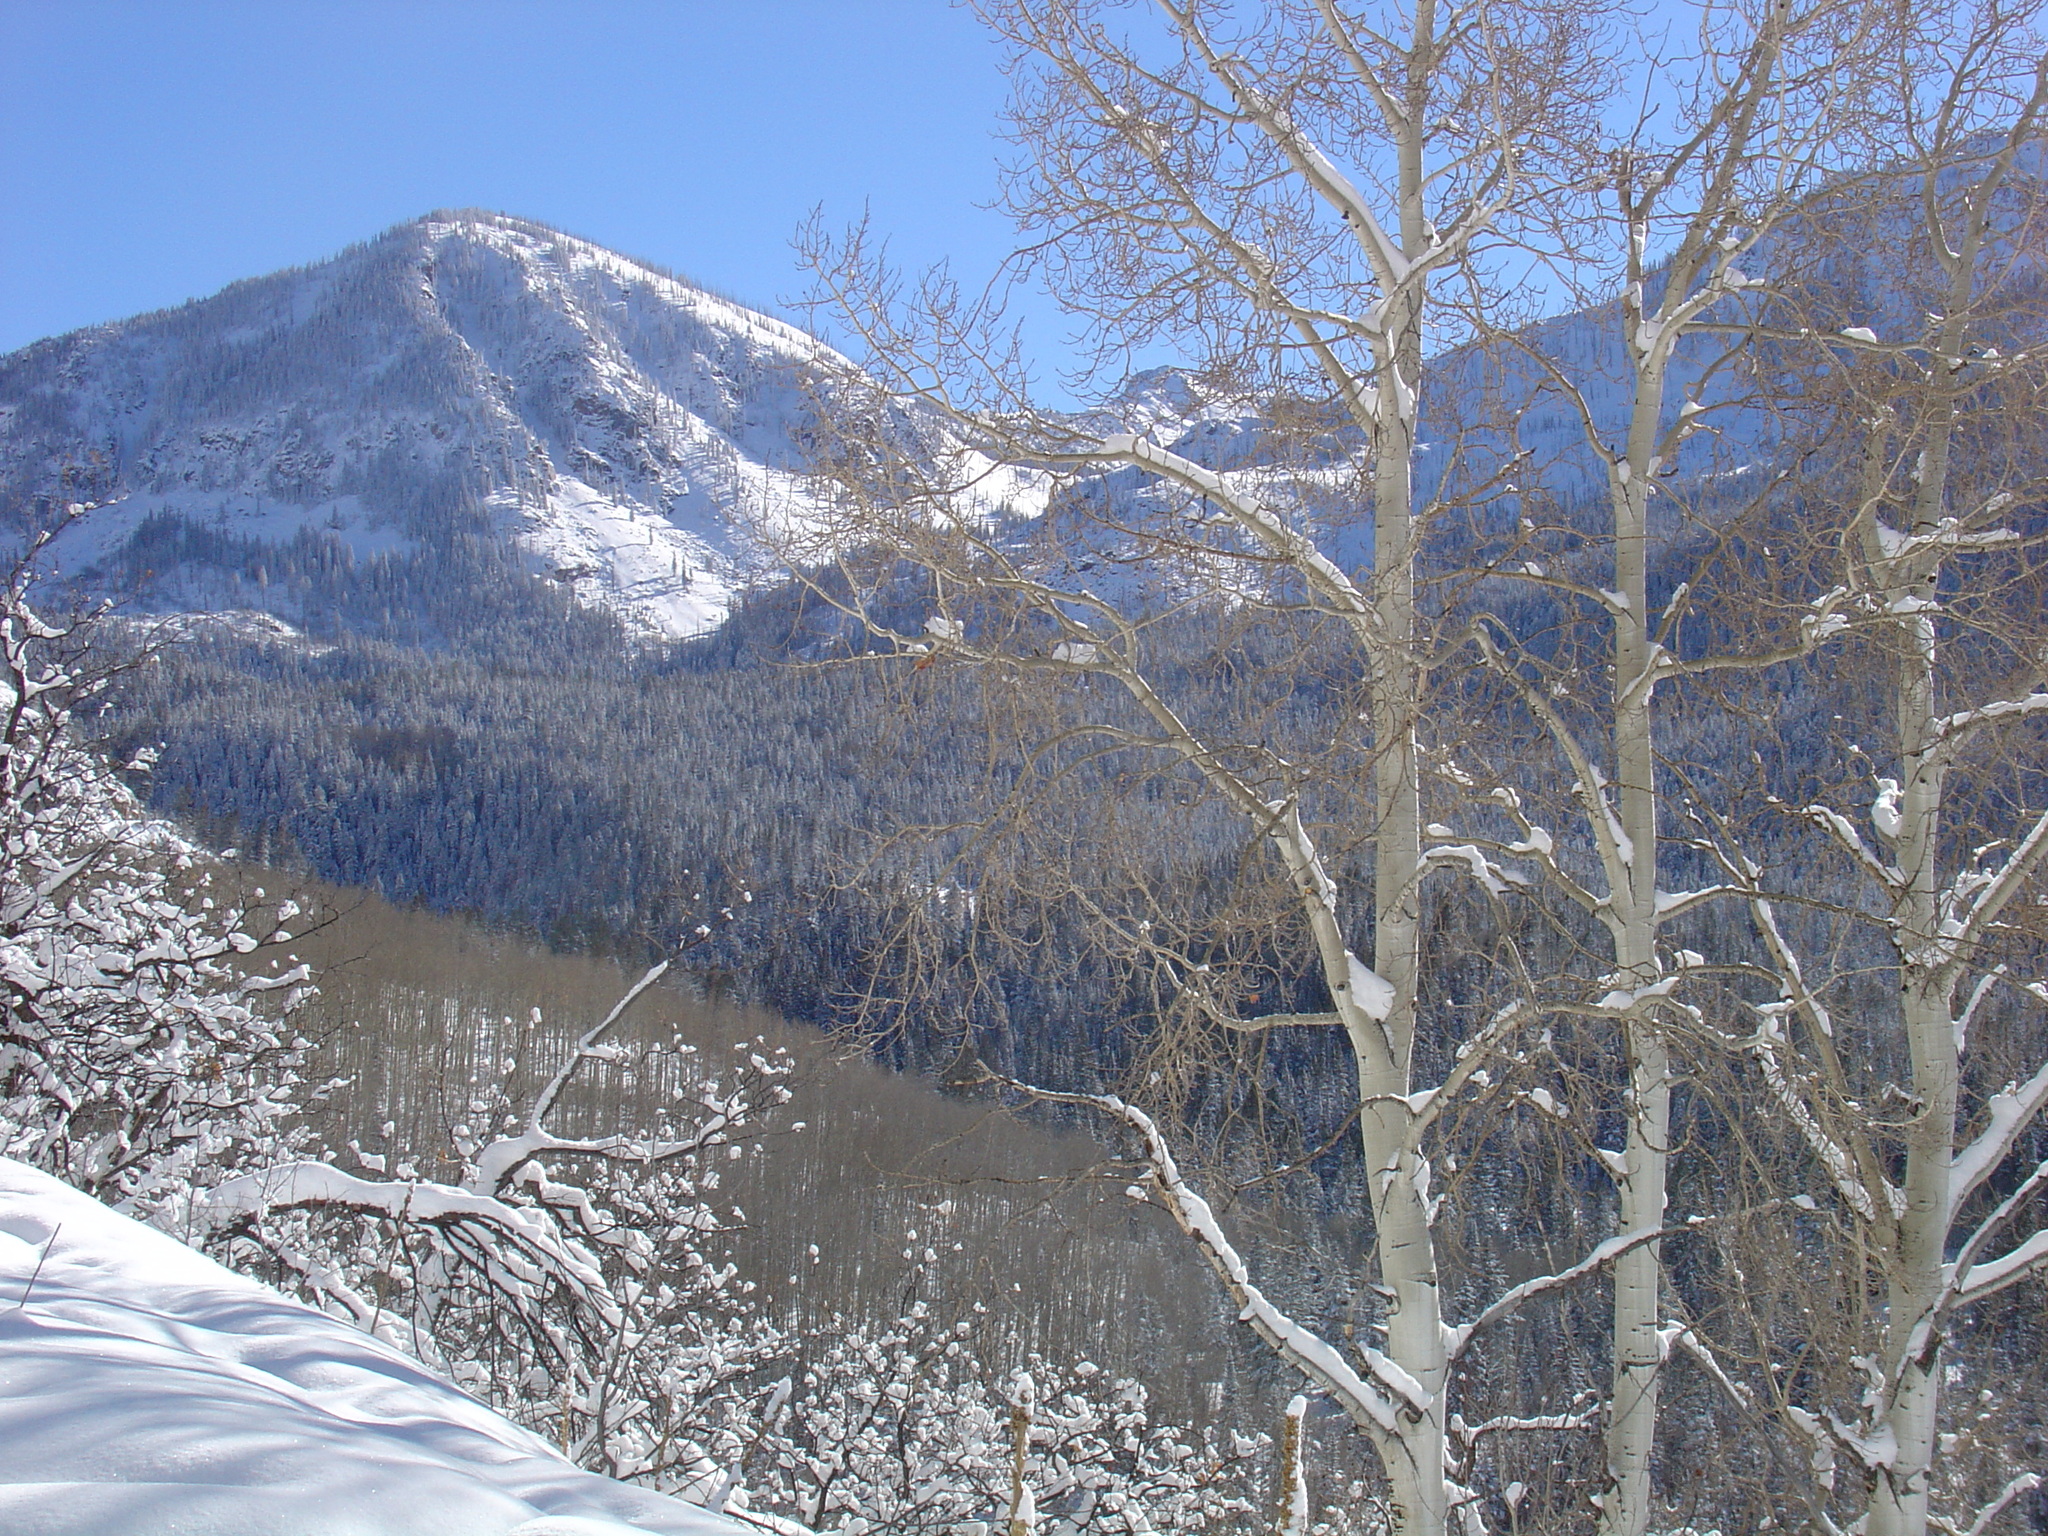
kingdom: Plantae
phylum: Tracheophyta
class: Magnoliopsida
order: Malpighiales
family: Salicaceae
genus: Populus
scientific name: Populus tremuloides
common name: Quaking aspen
